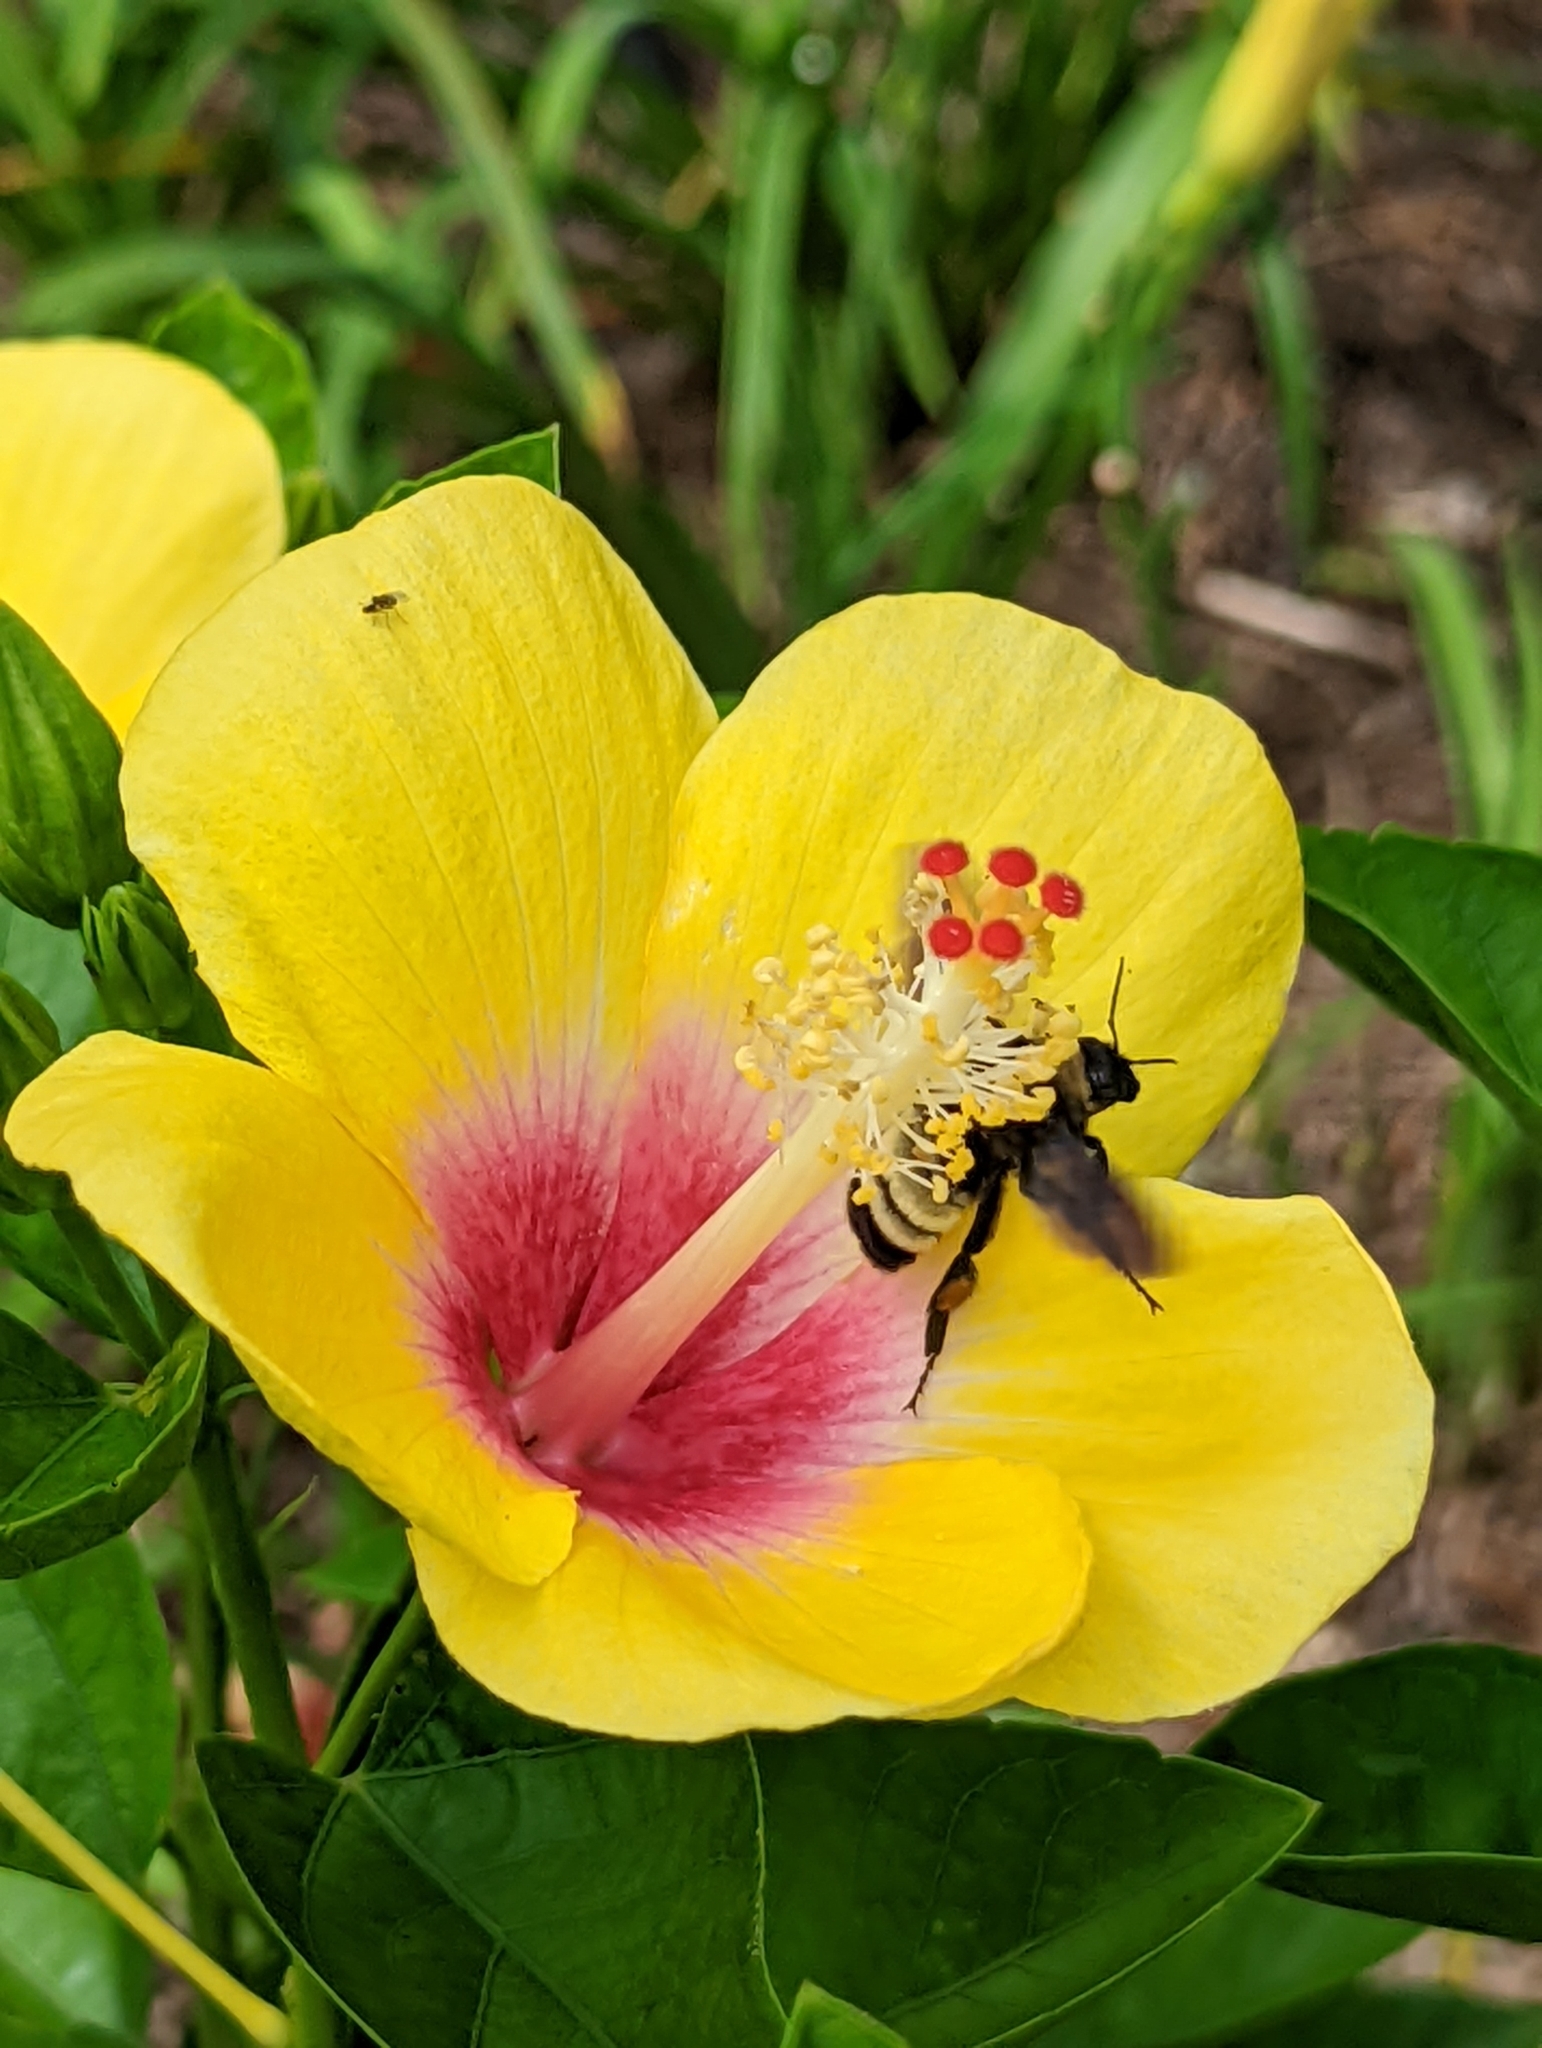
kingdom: Animalia
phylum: Arthropoda
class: Insecta
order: Hymenoptera
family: Apidae
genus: Bombus
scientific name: Bombus pensylvanicus
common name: Bumble bee
